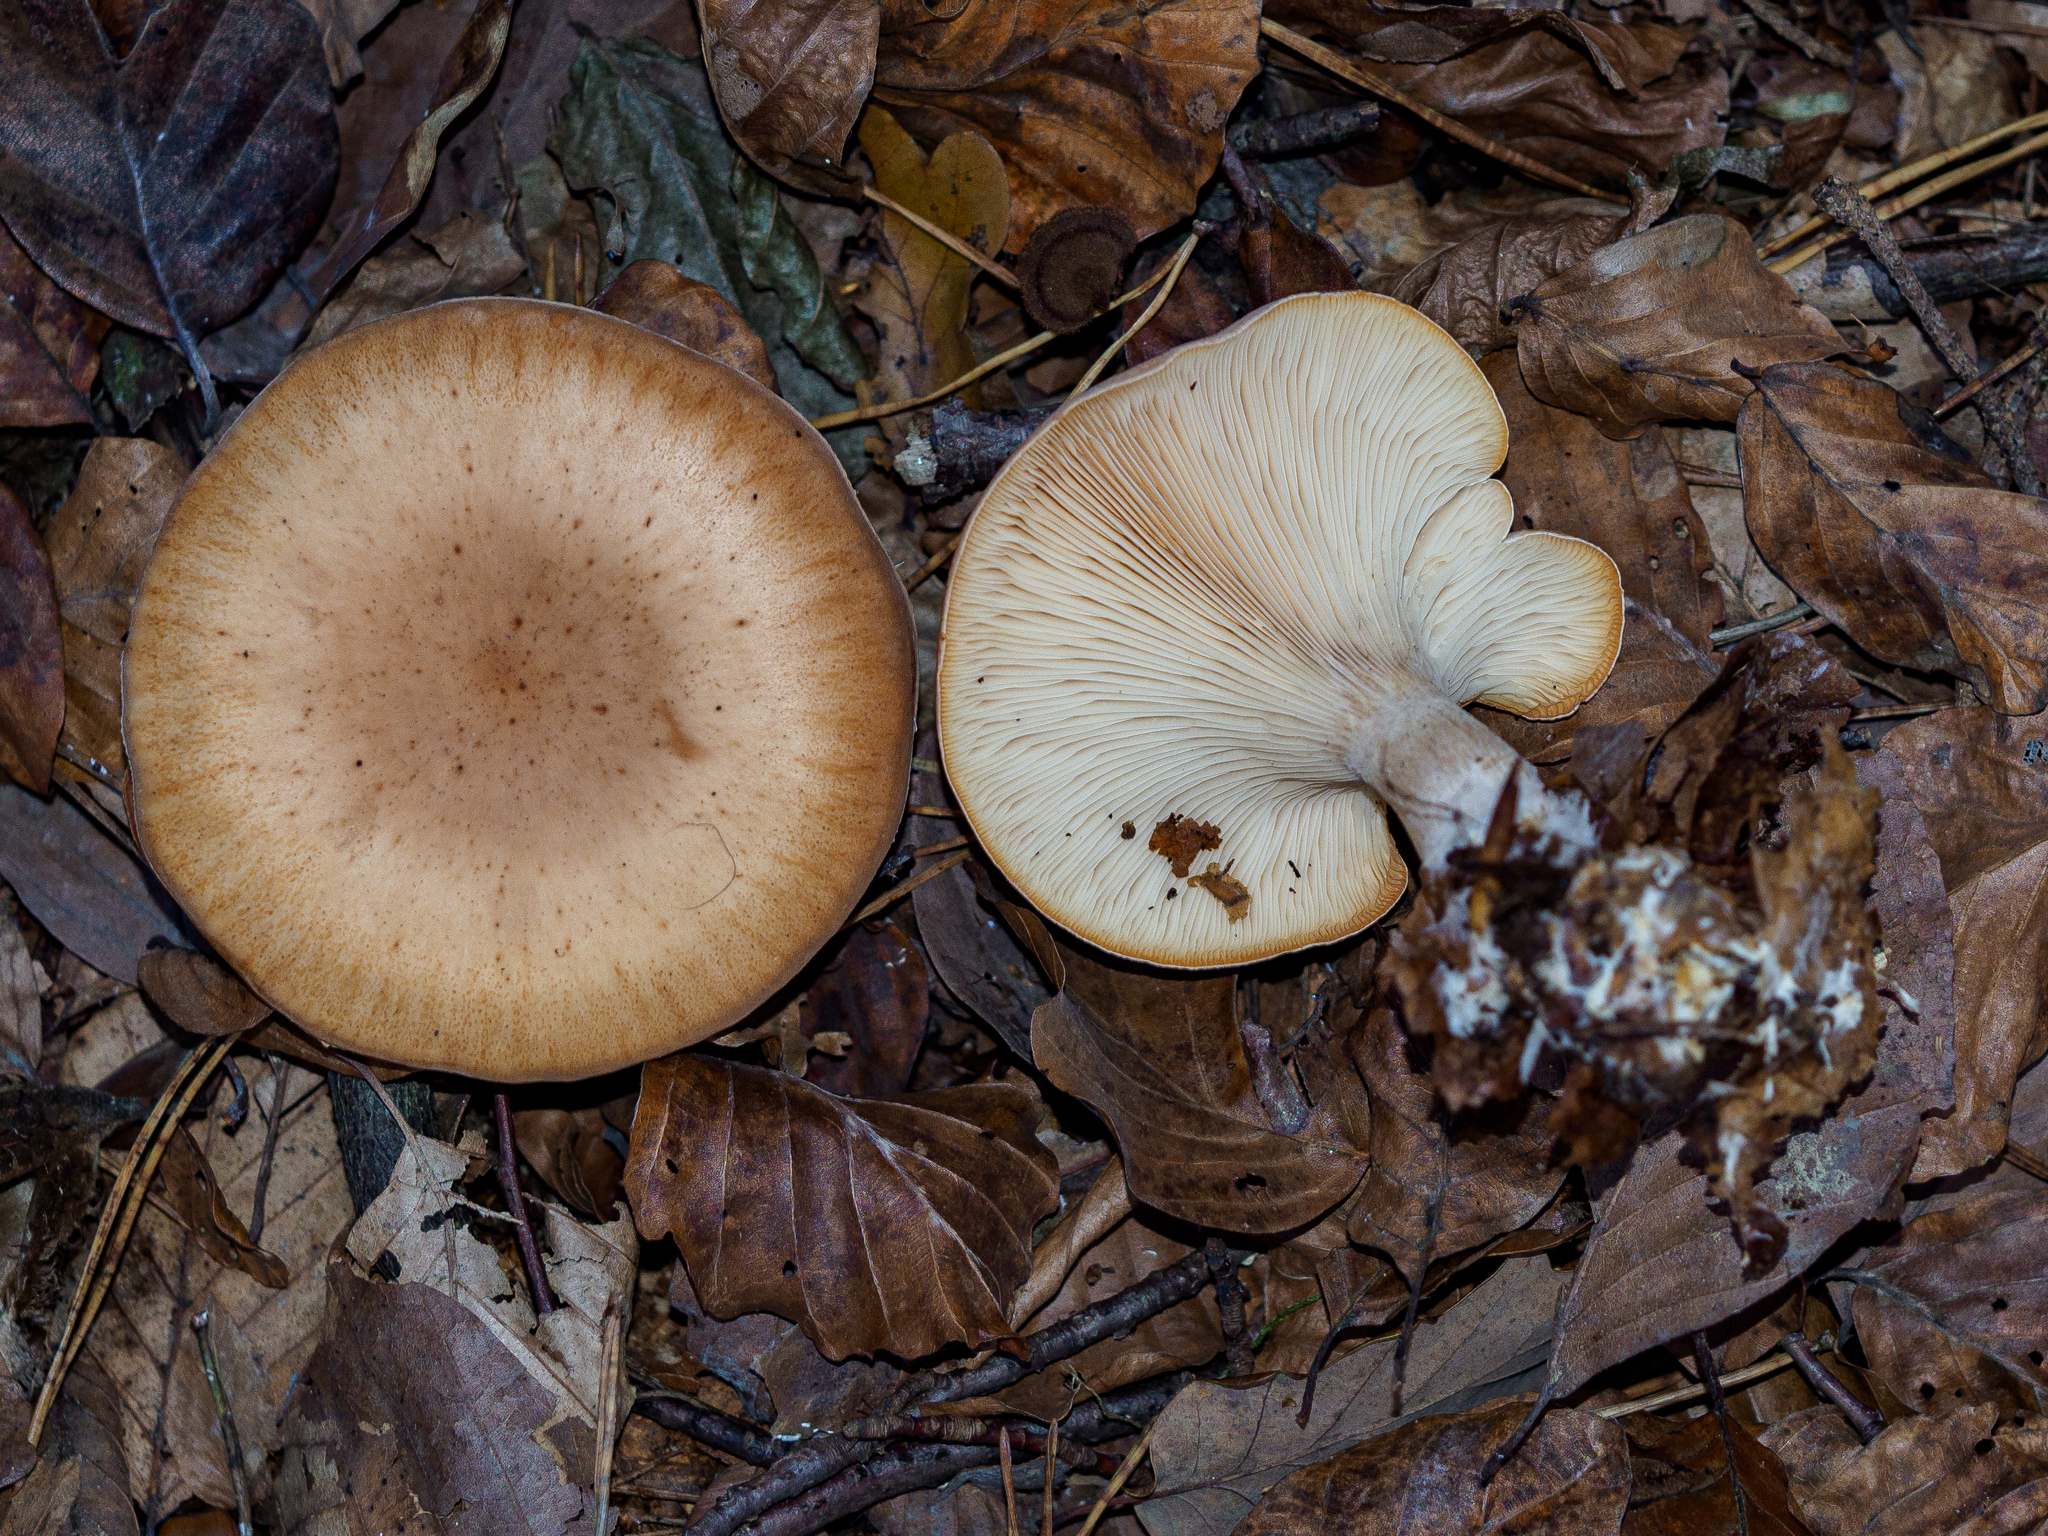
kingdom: Fungi
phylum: Basidiomycota
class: Agaricomycetes
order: Agaricales
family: Tricholomataceae
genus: Paralepista
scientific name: Paralepista flaccida
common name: Tawny funnel cap
